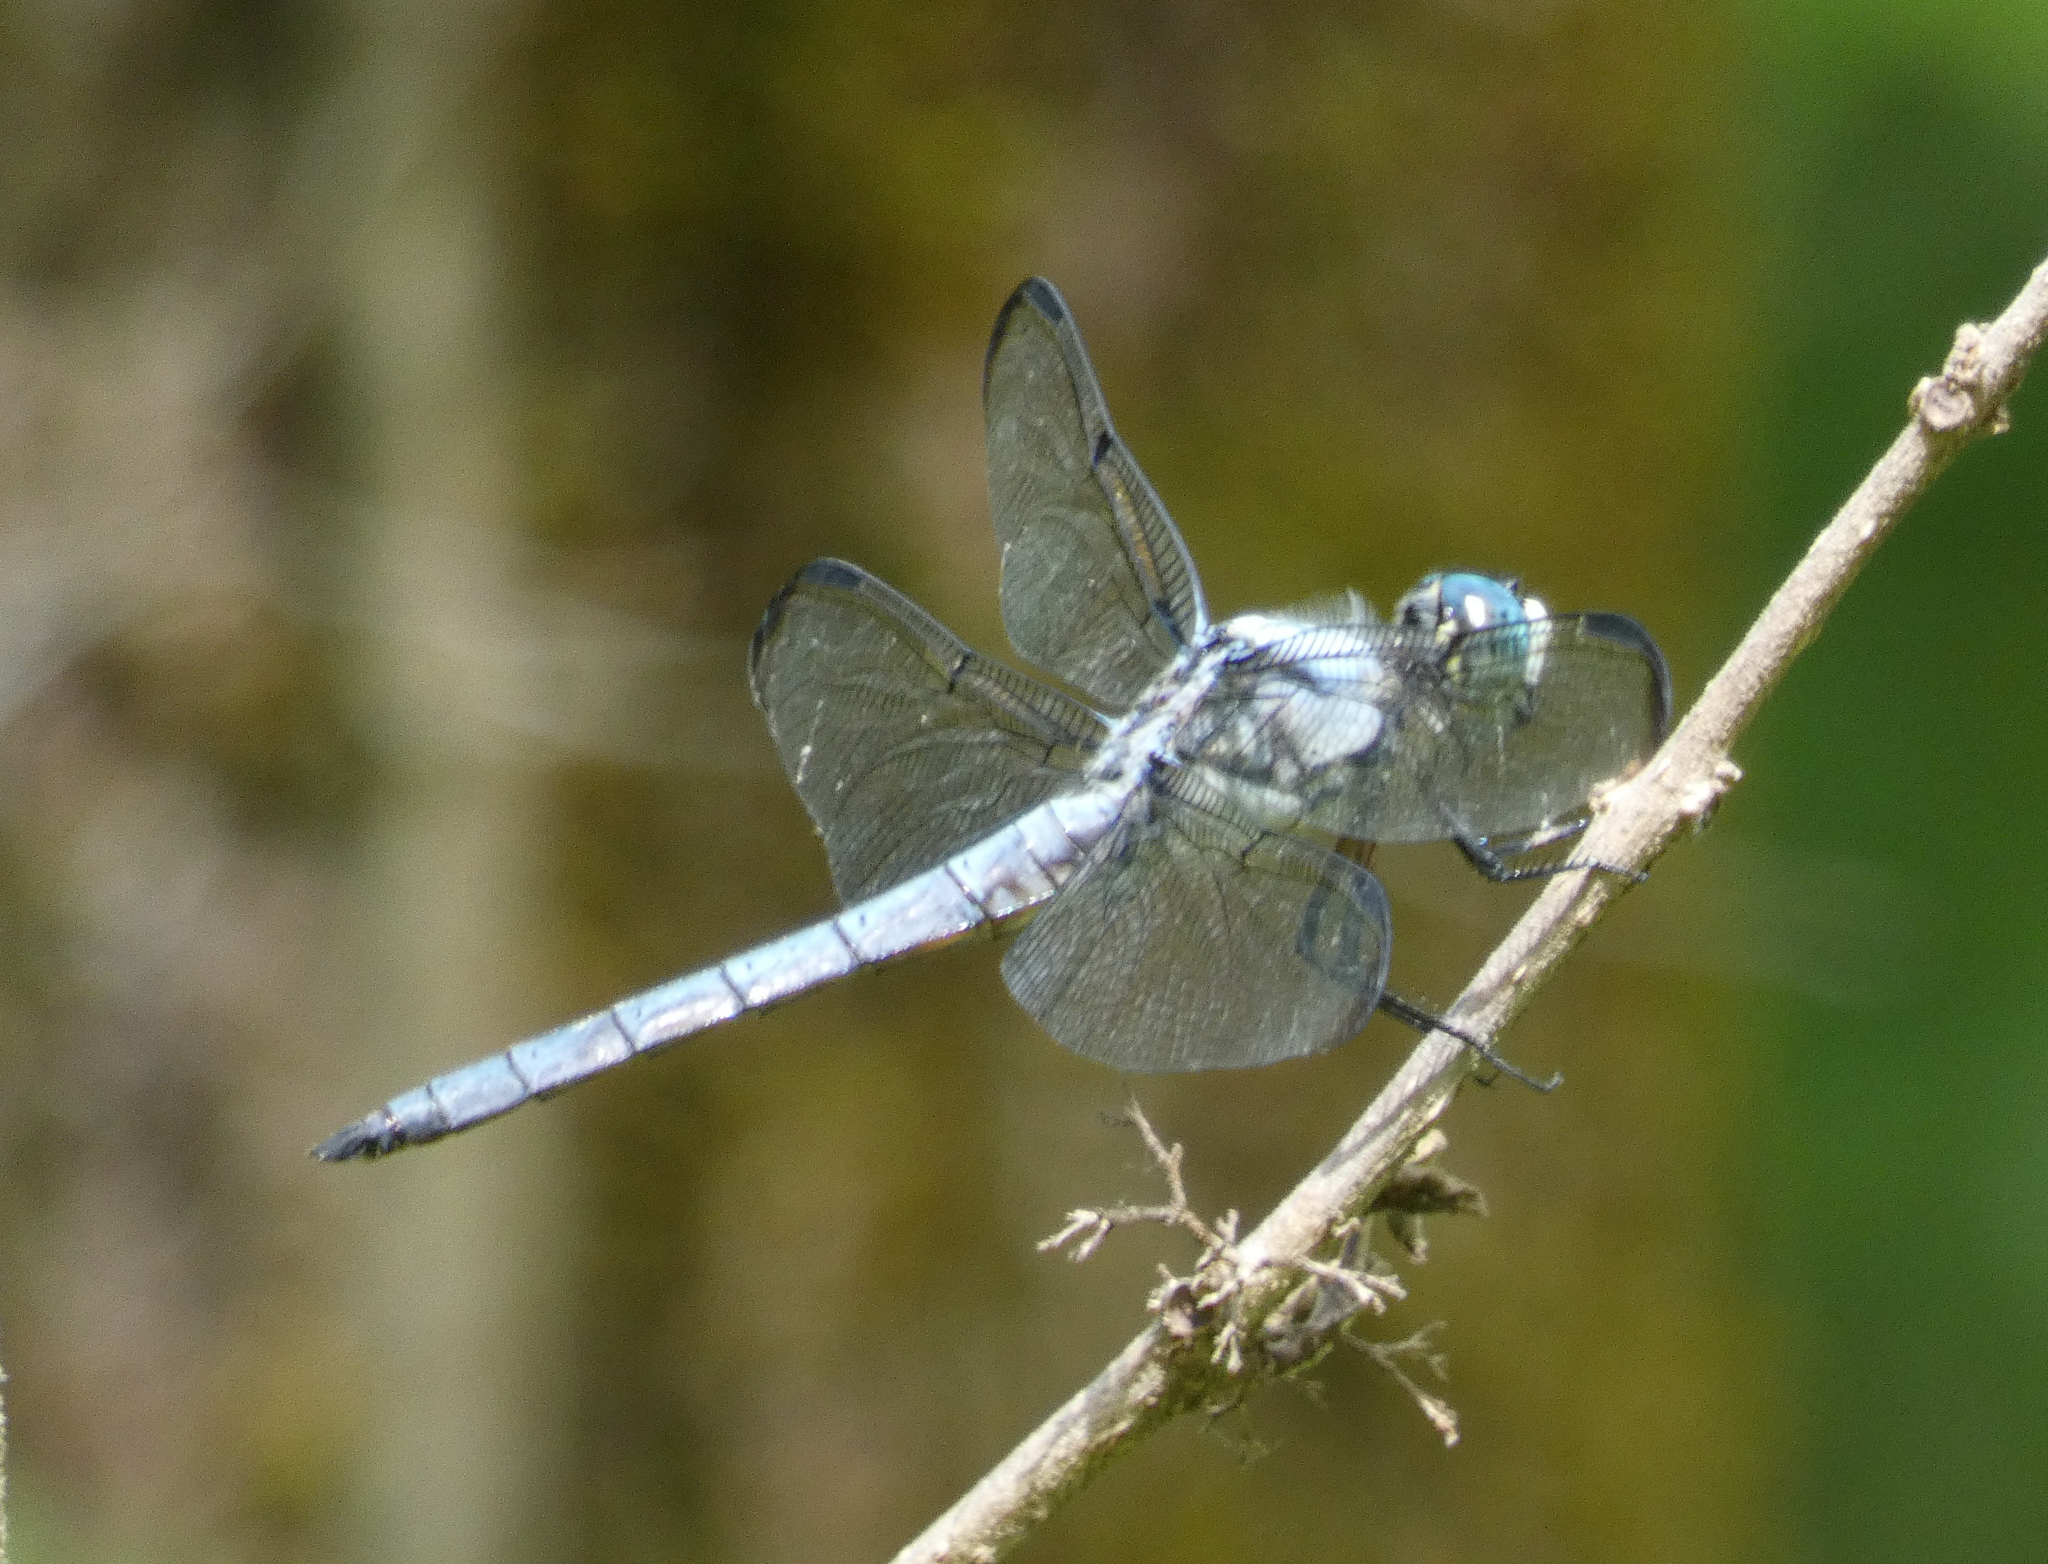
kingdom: Animalia
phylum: Arthropoda
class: Insecta
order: Odonata
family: Libellulidae
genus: Libellula
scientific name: Libellula vibrans
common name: Great blue skimmer
